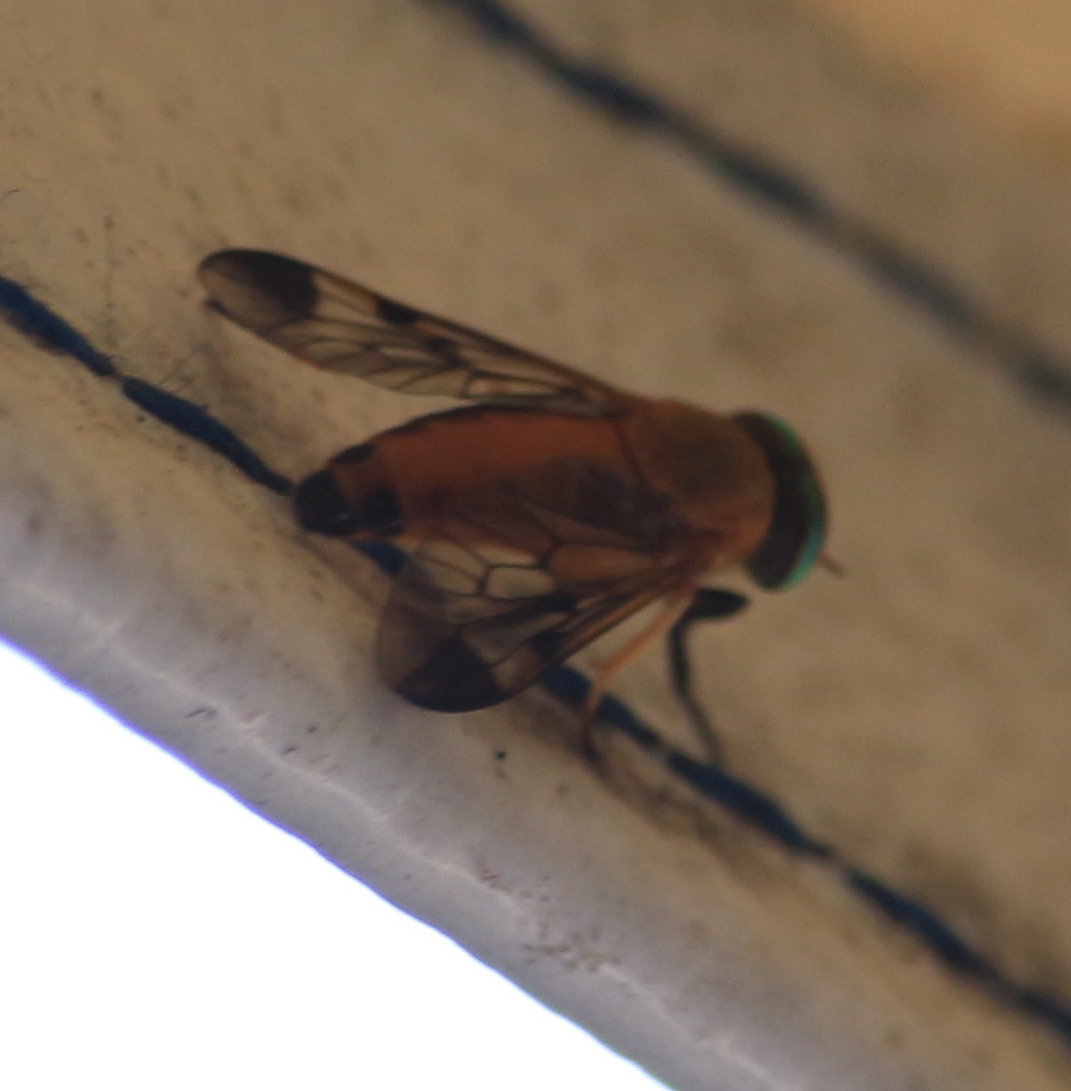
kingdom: Animalia
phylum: Arthropoda
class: Insecta
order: Diptera
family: Tabanidae
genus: Diachlorus
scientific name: Diachlorus ferrugatus
